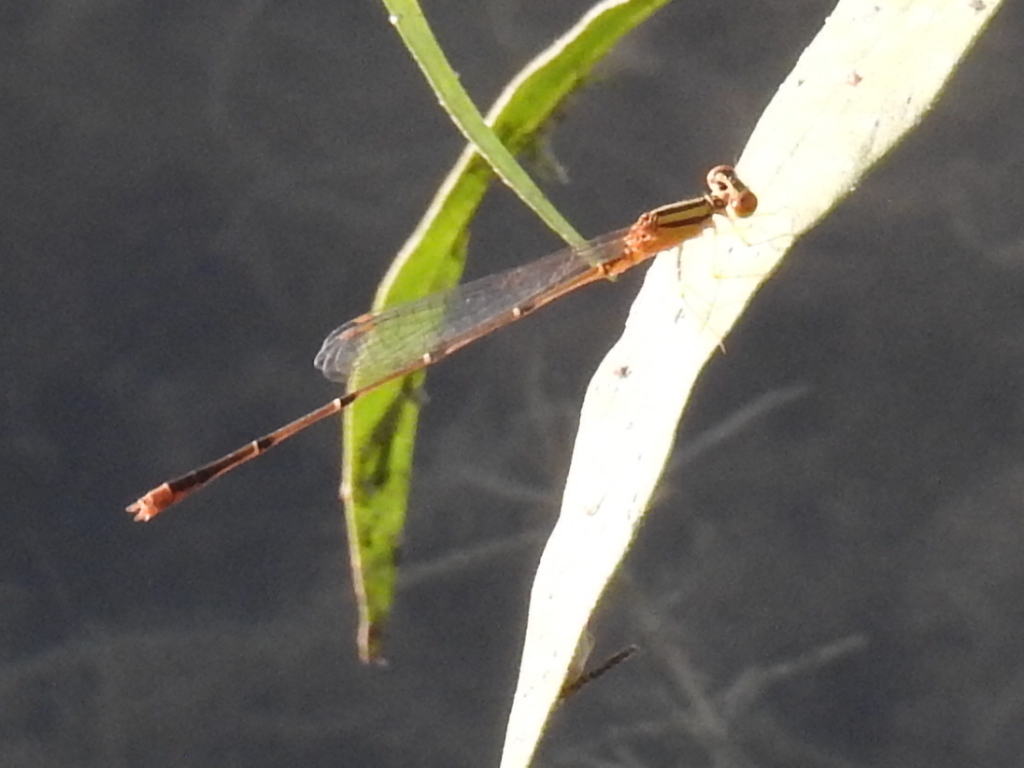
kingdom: Animalia
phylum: Arthropoda
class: Insecta
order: Odonata
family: Coenagrionidae
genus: Enallagma
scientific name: Enallagma signatum
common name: Orange bluet
